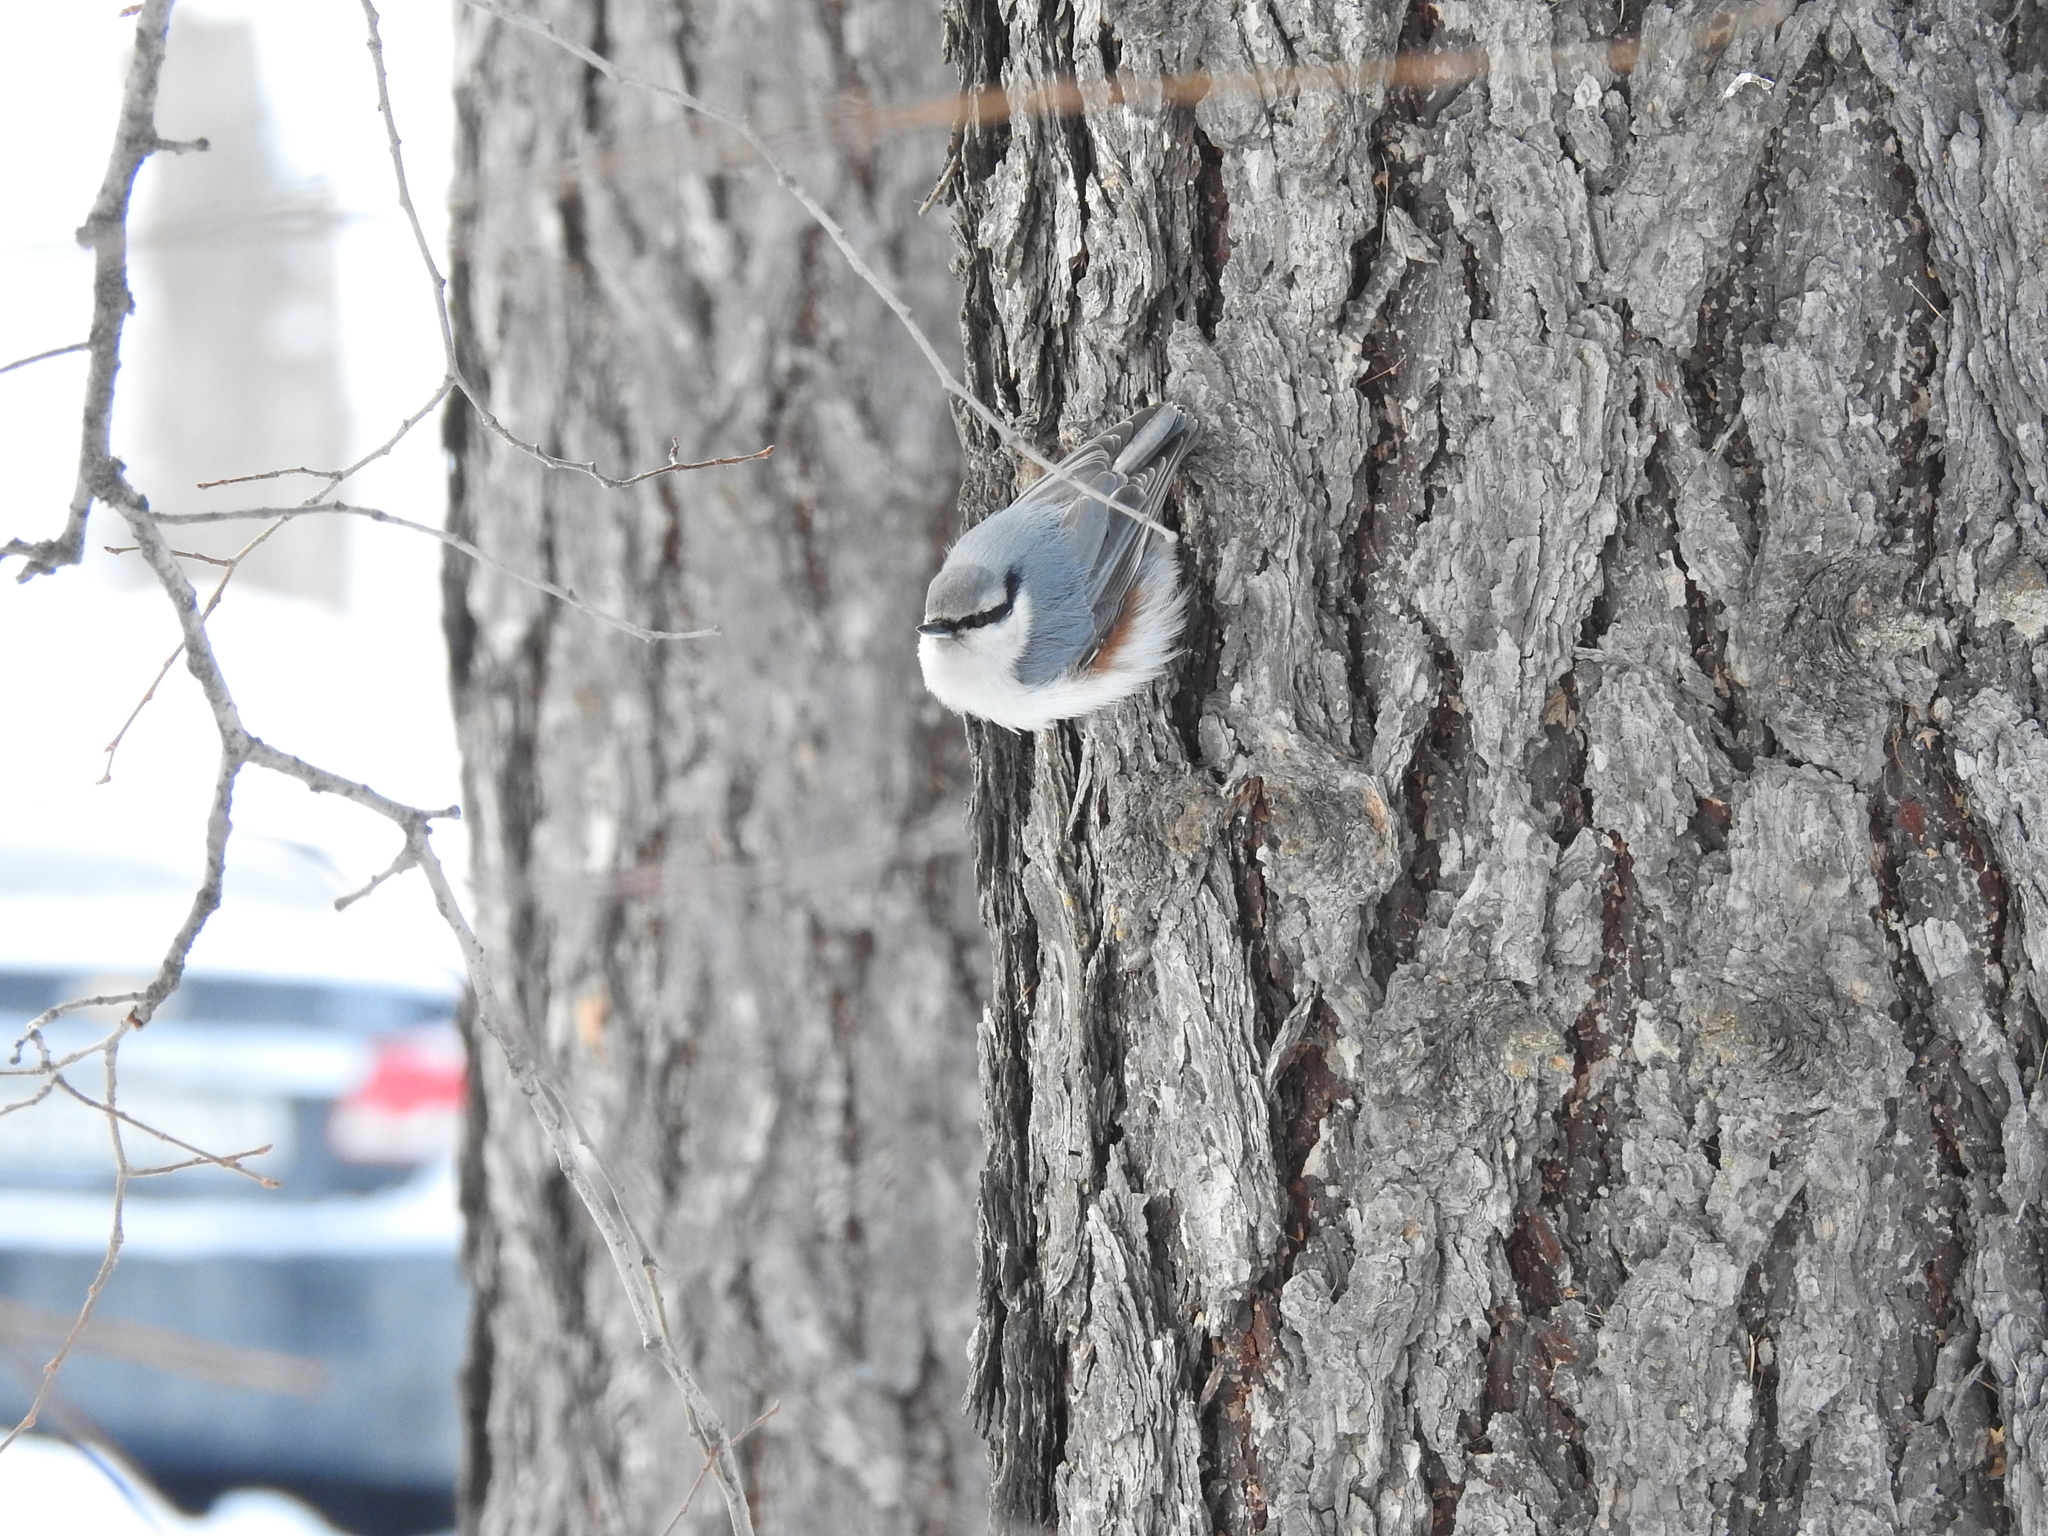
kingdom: Animalia
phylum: Chordata
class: Aves
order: Passeriformes
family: Sittidae
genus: Sitta
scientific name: Sitta europaea
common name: Eurasian nuthatch
